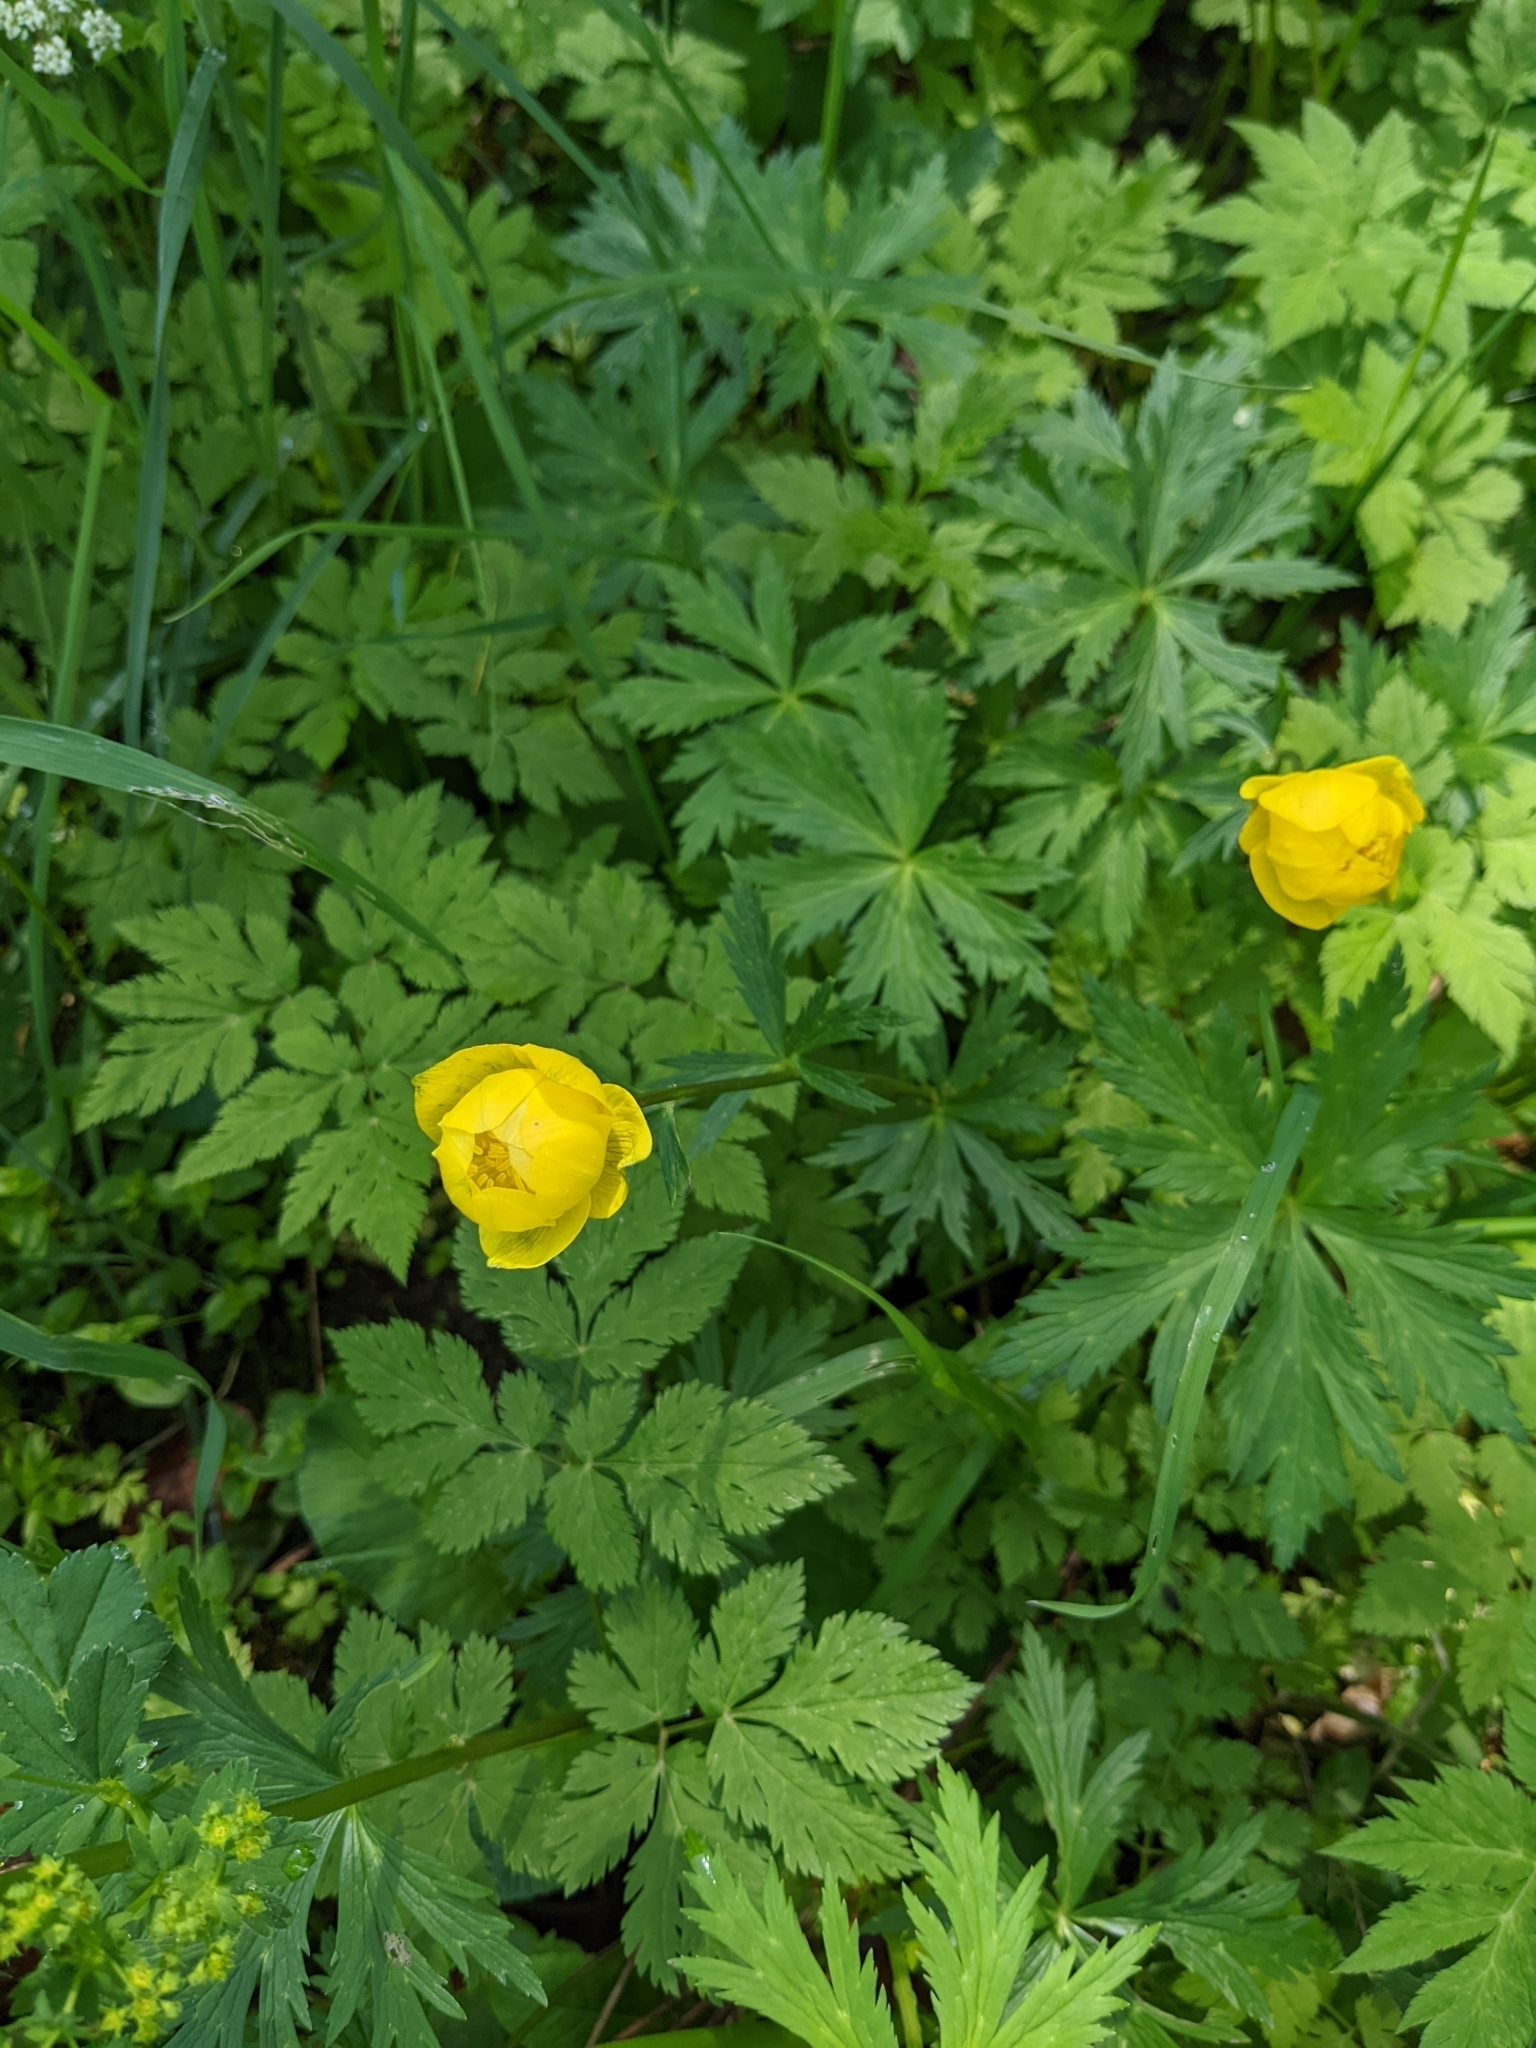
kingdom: Plantae
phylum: Tracheophyta
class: Magnoliopsida
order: Ranunculales
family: Ranunculaceae
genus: Trollius
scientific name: Trollius europaeus
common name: European globeflower
